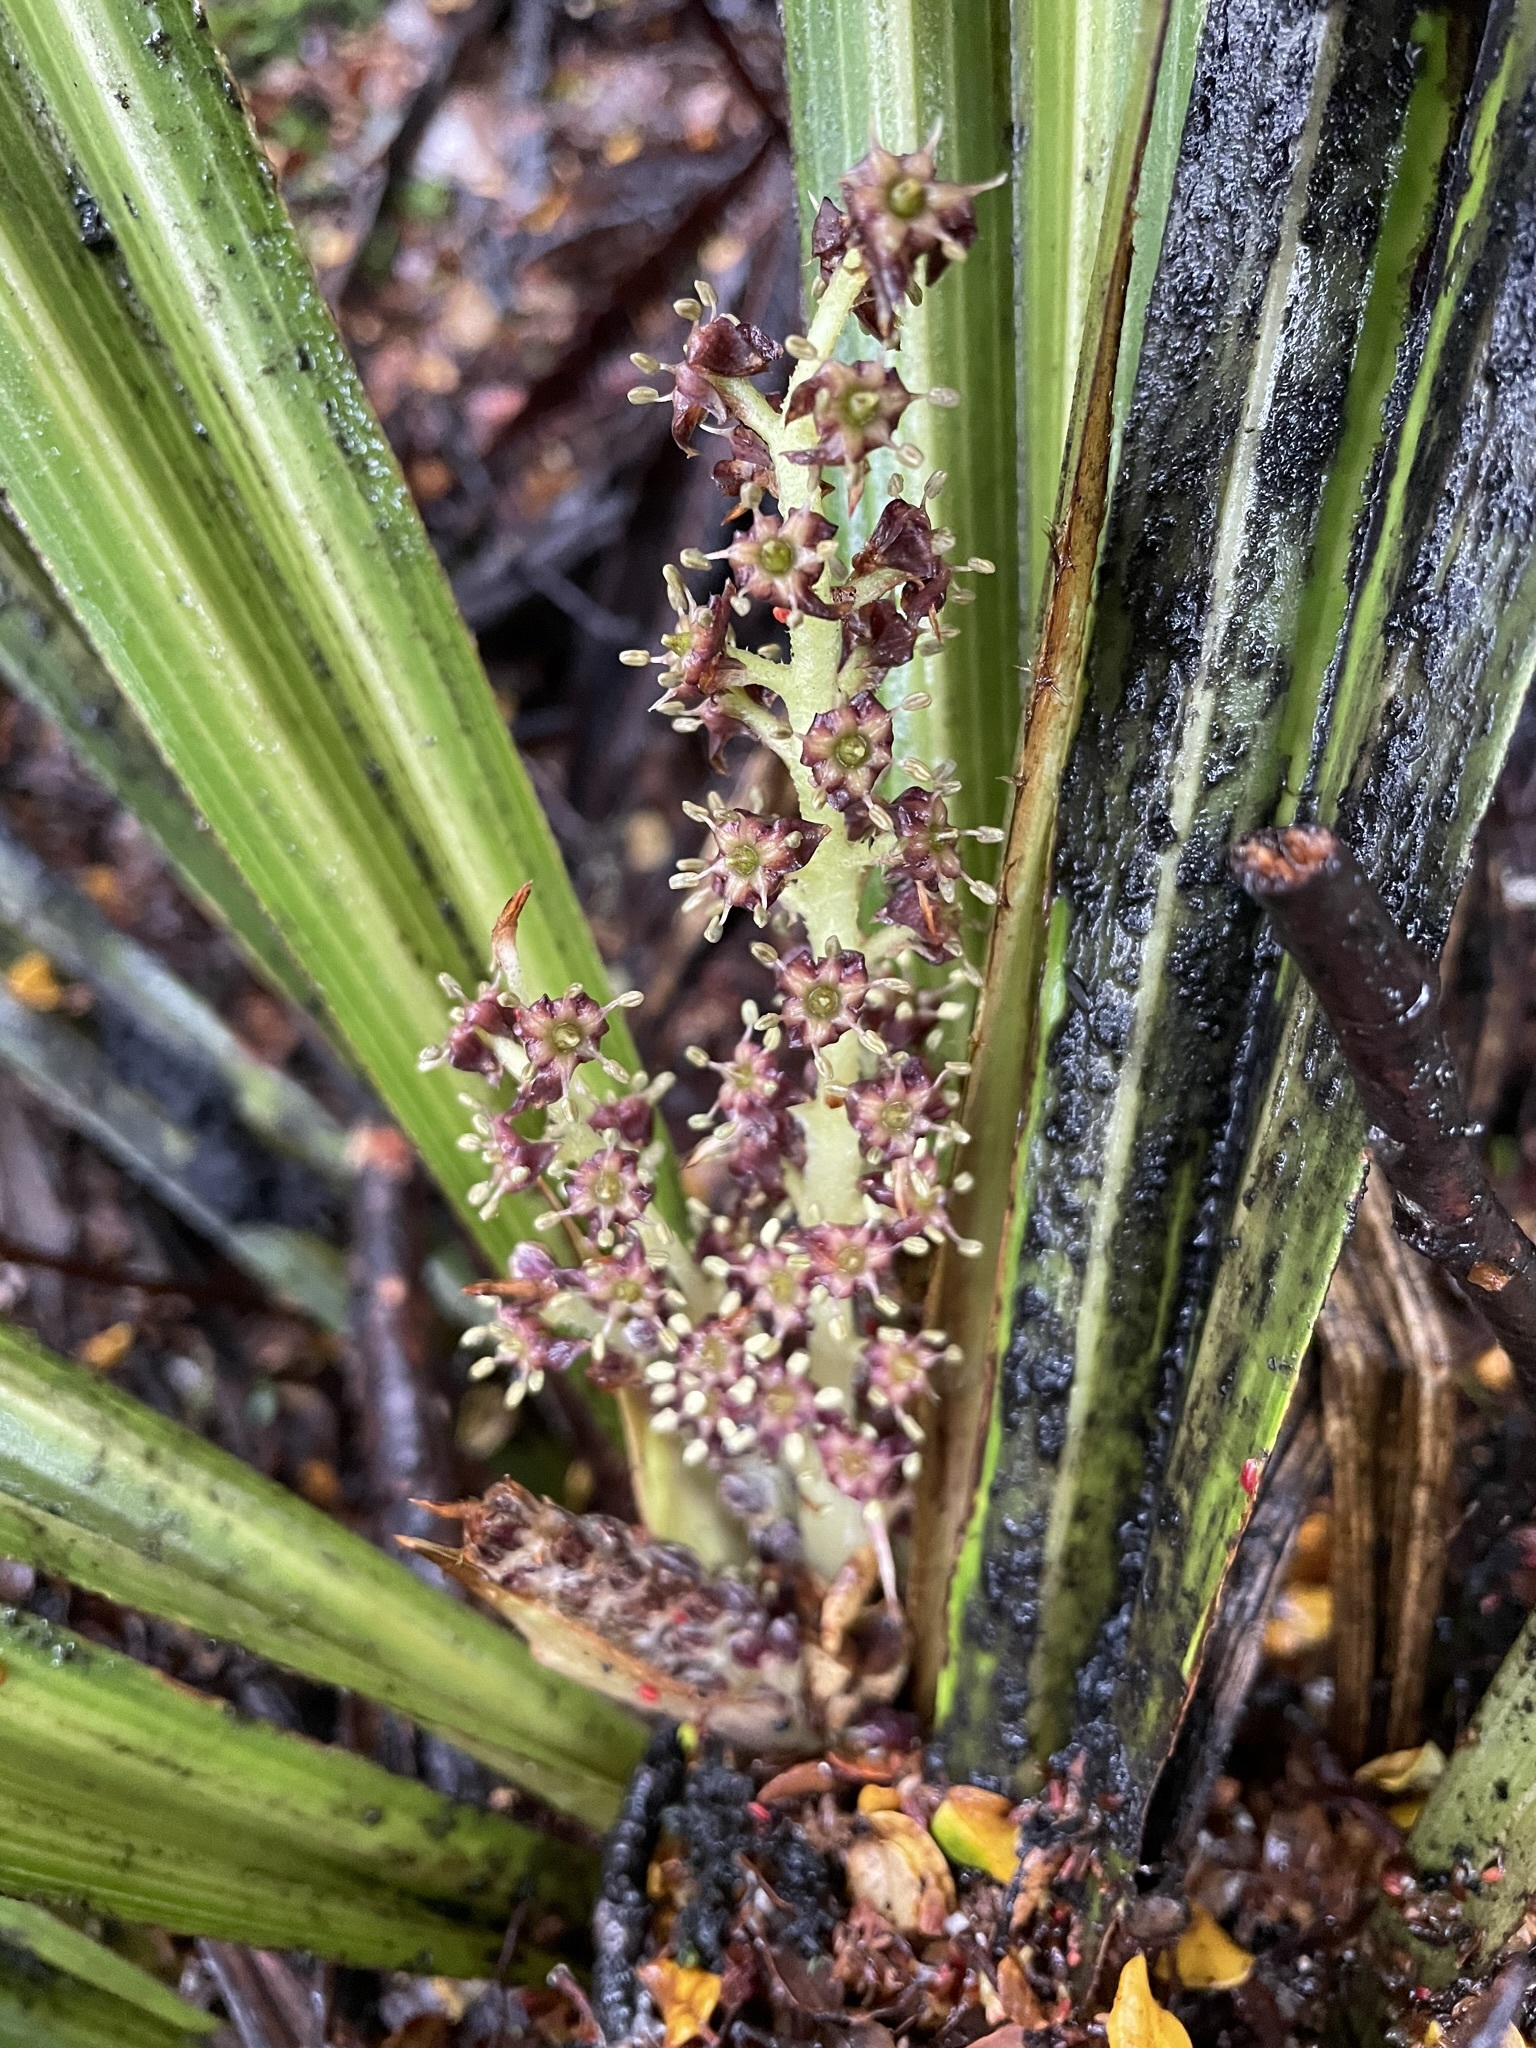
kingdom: Plantae
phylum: Tracheophyta
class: Liliopsida
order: Asparagales
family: Asteliaceae
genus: Astelia
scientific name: Astelia fragrans
